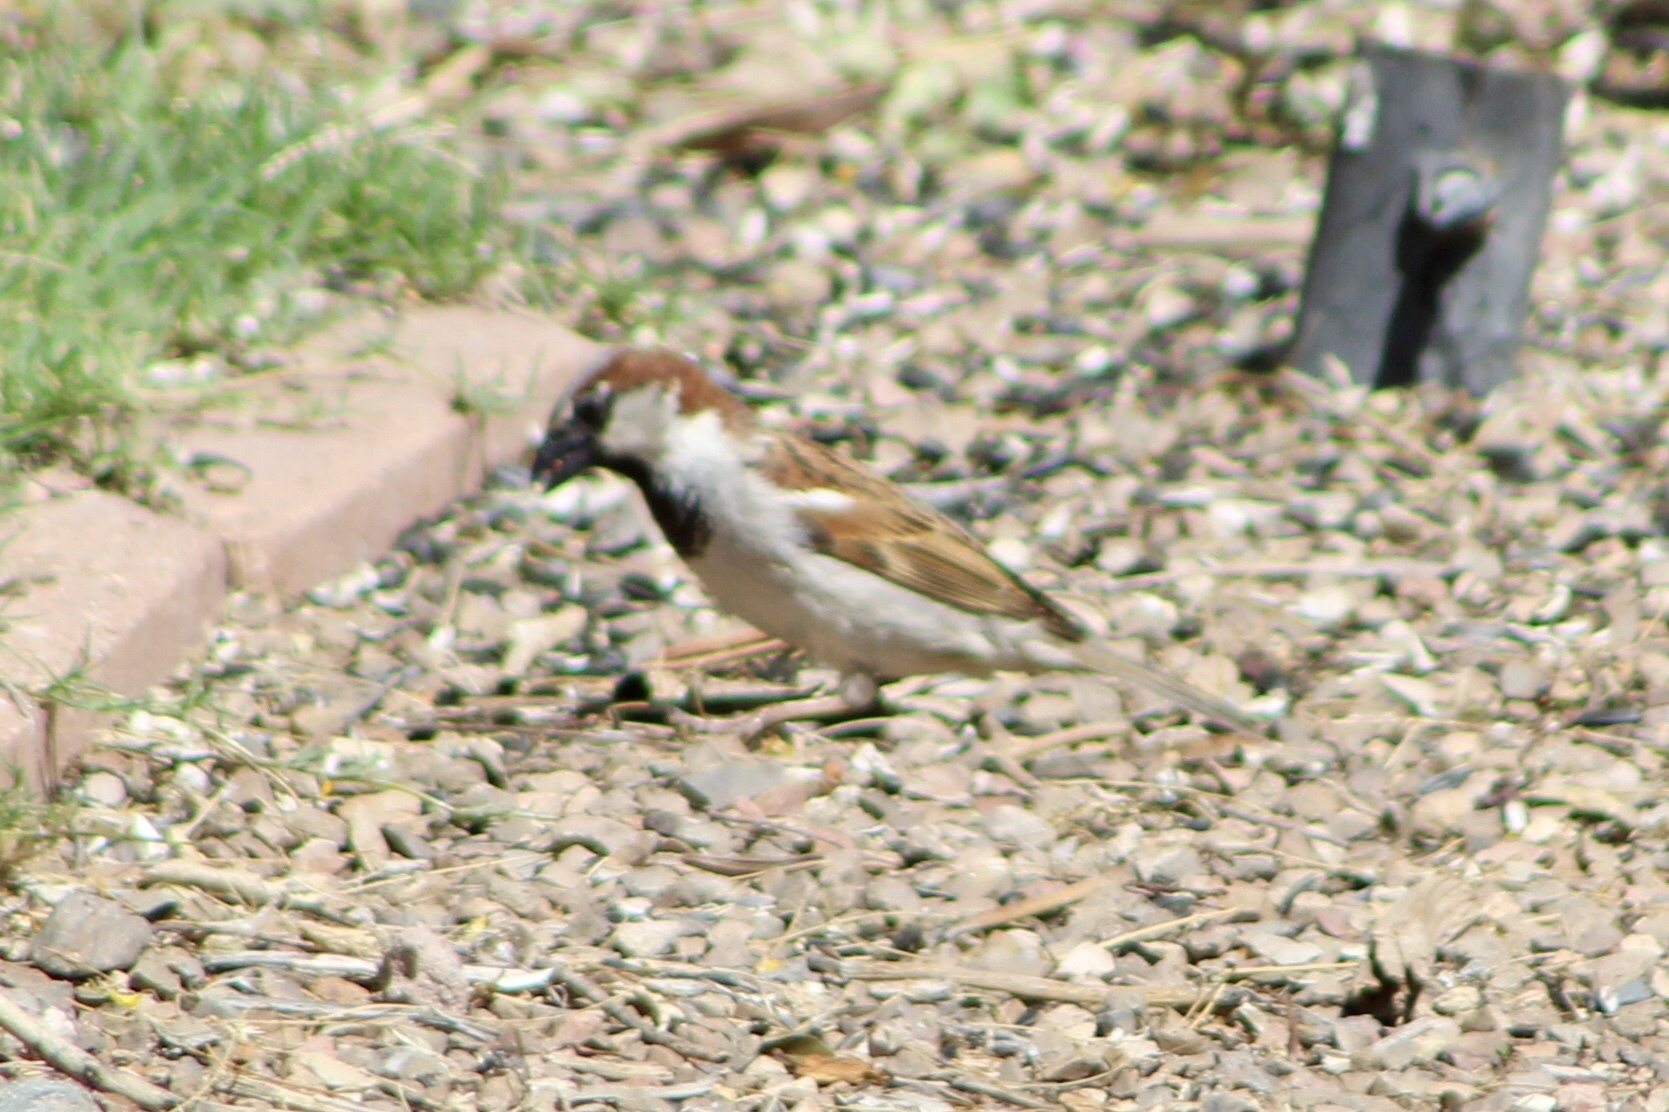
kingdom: Animalia
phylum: Chordata
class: Aves
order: Passeriformes
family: Passeridae
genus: Passer
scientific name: Passer domesticus
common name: House sparrow
